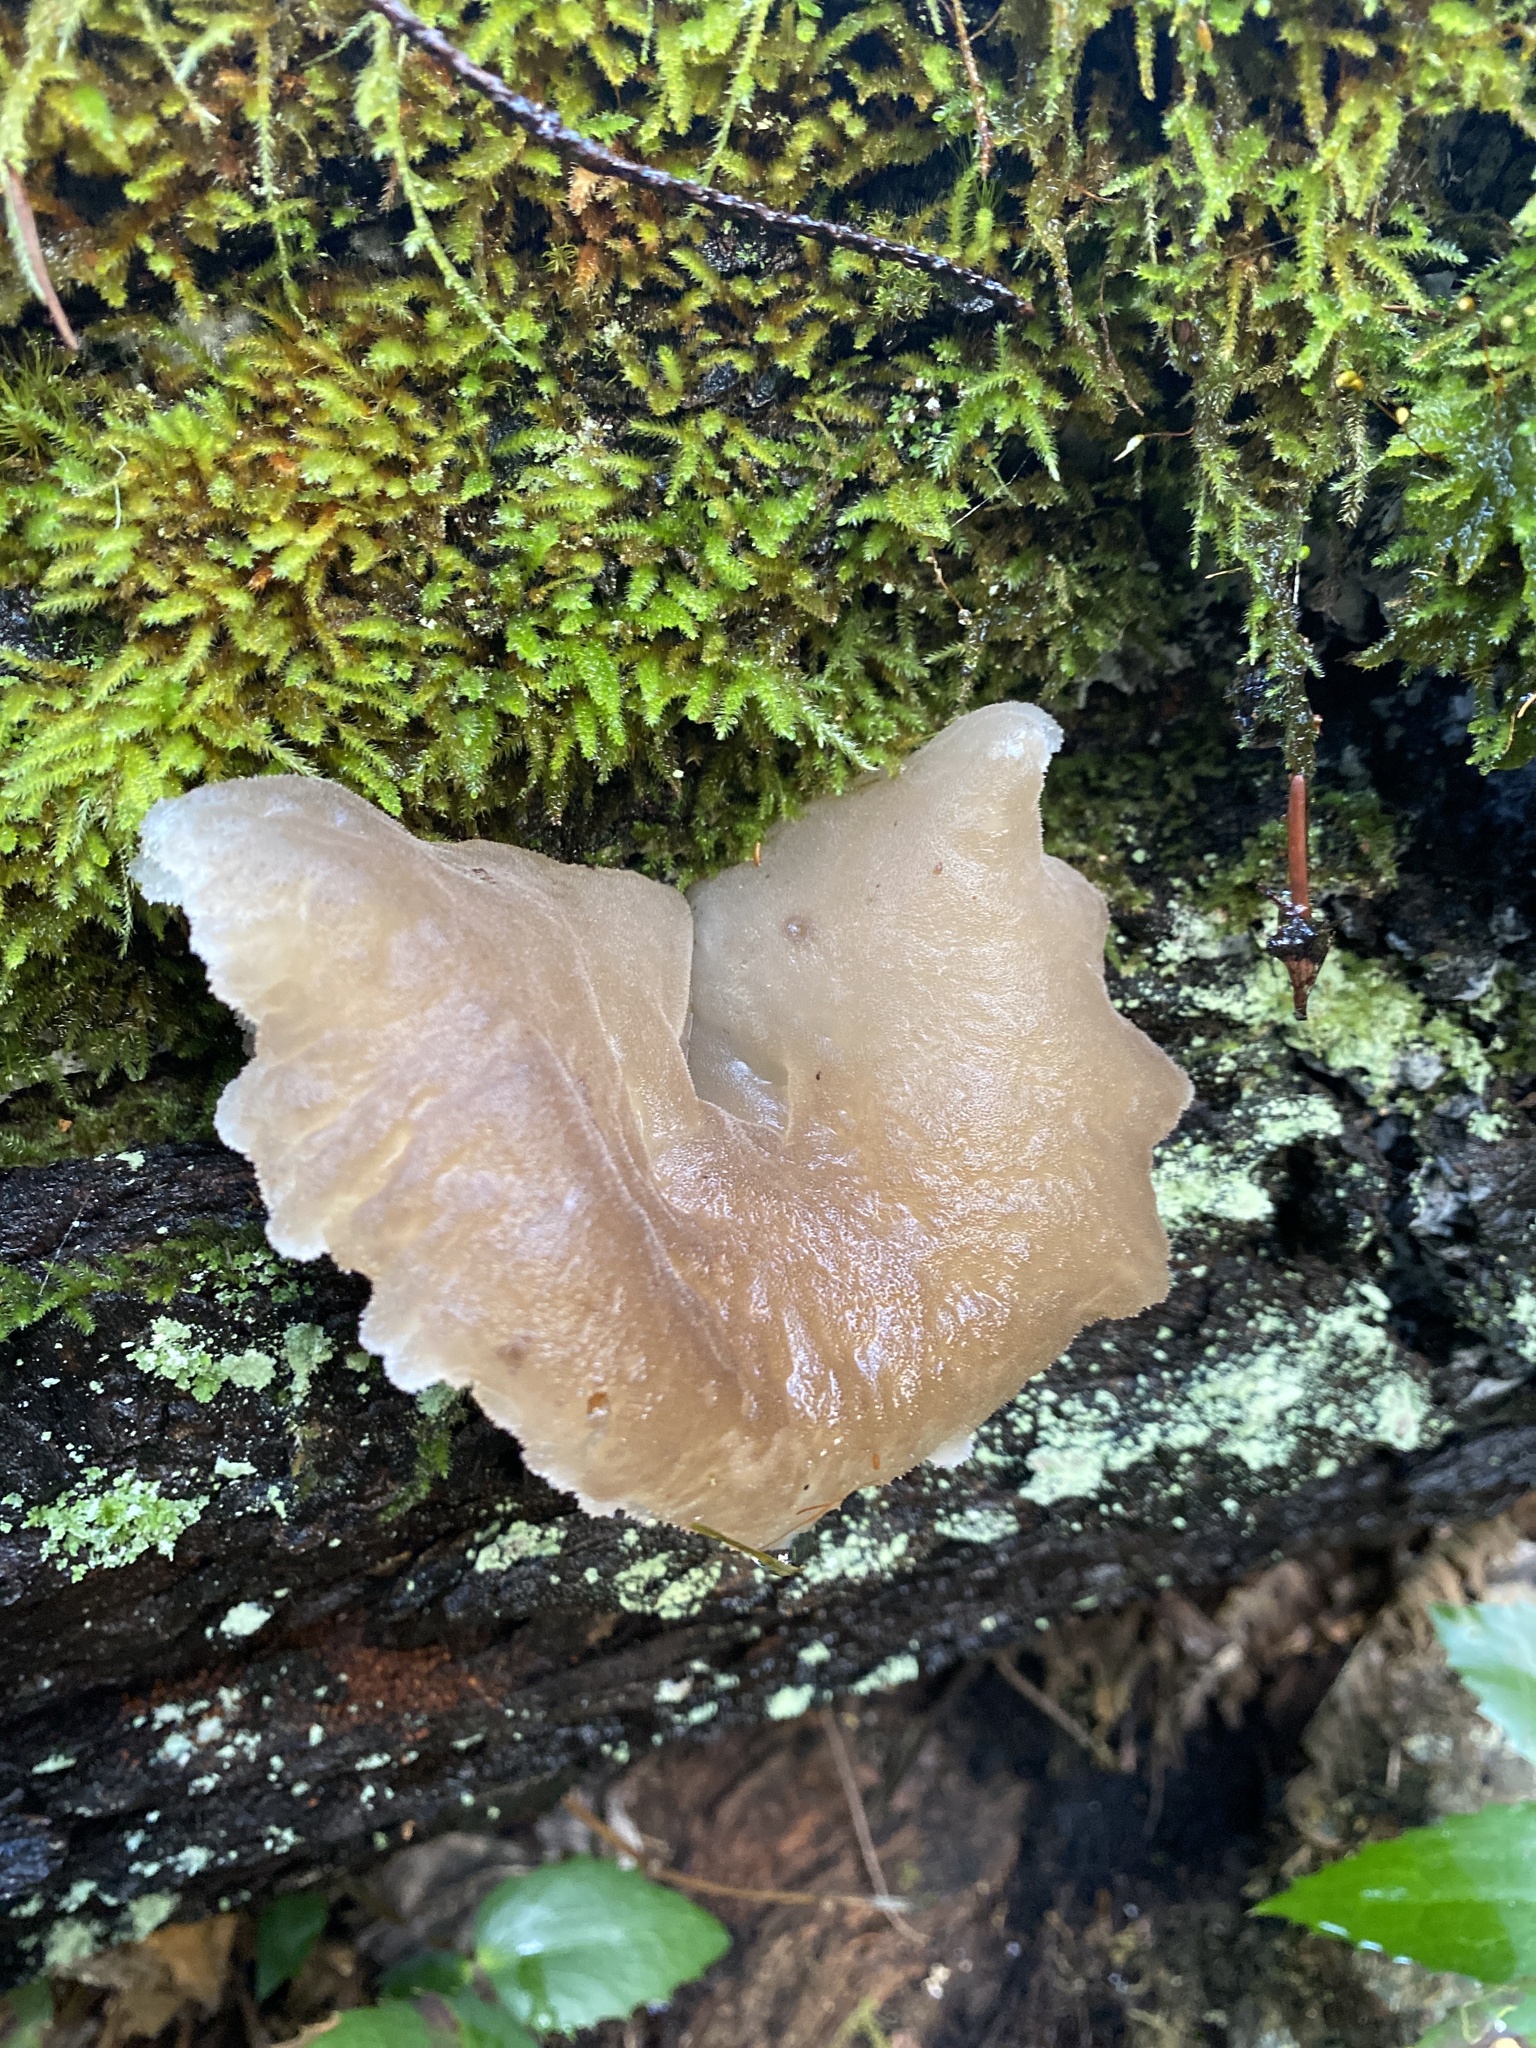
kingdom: Fungi
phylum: Basidiomycota
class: Agaricomycetes
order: Auriculariales
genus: Pseudohydnum
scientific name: Pseudohydnum gelatinosum
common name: Jelly tongue
